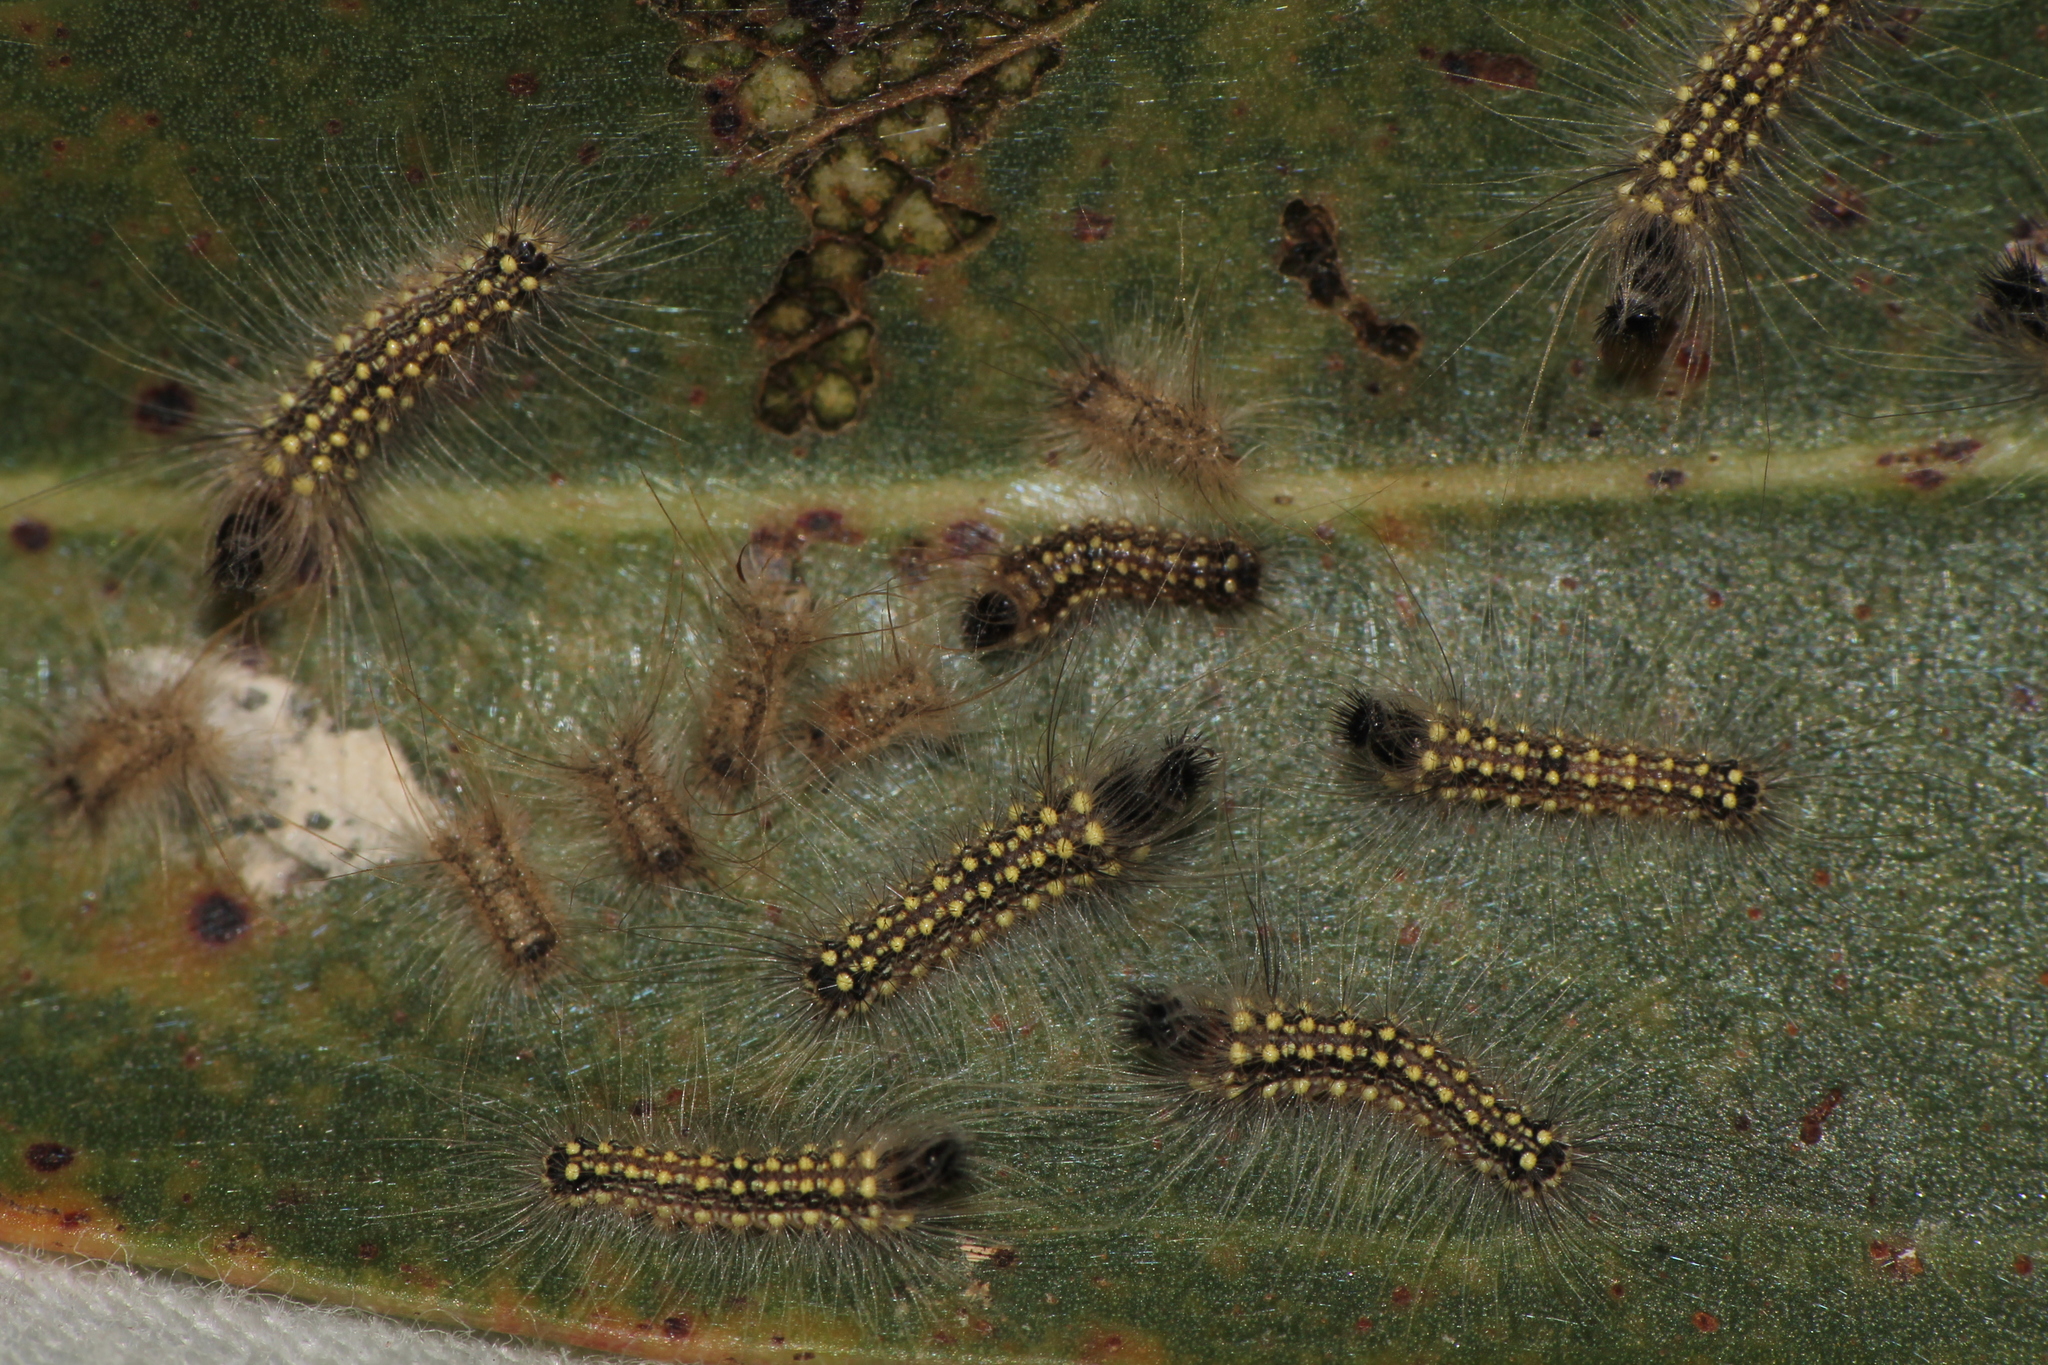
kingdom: Animalia
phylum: Arthropoda
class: Insecta
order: Lepidoptera
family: Nolidae
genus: Uraba
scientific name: Uraba lugens
